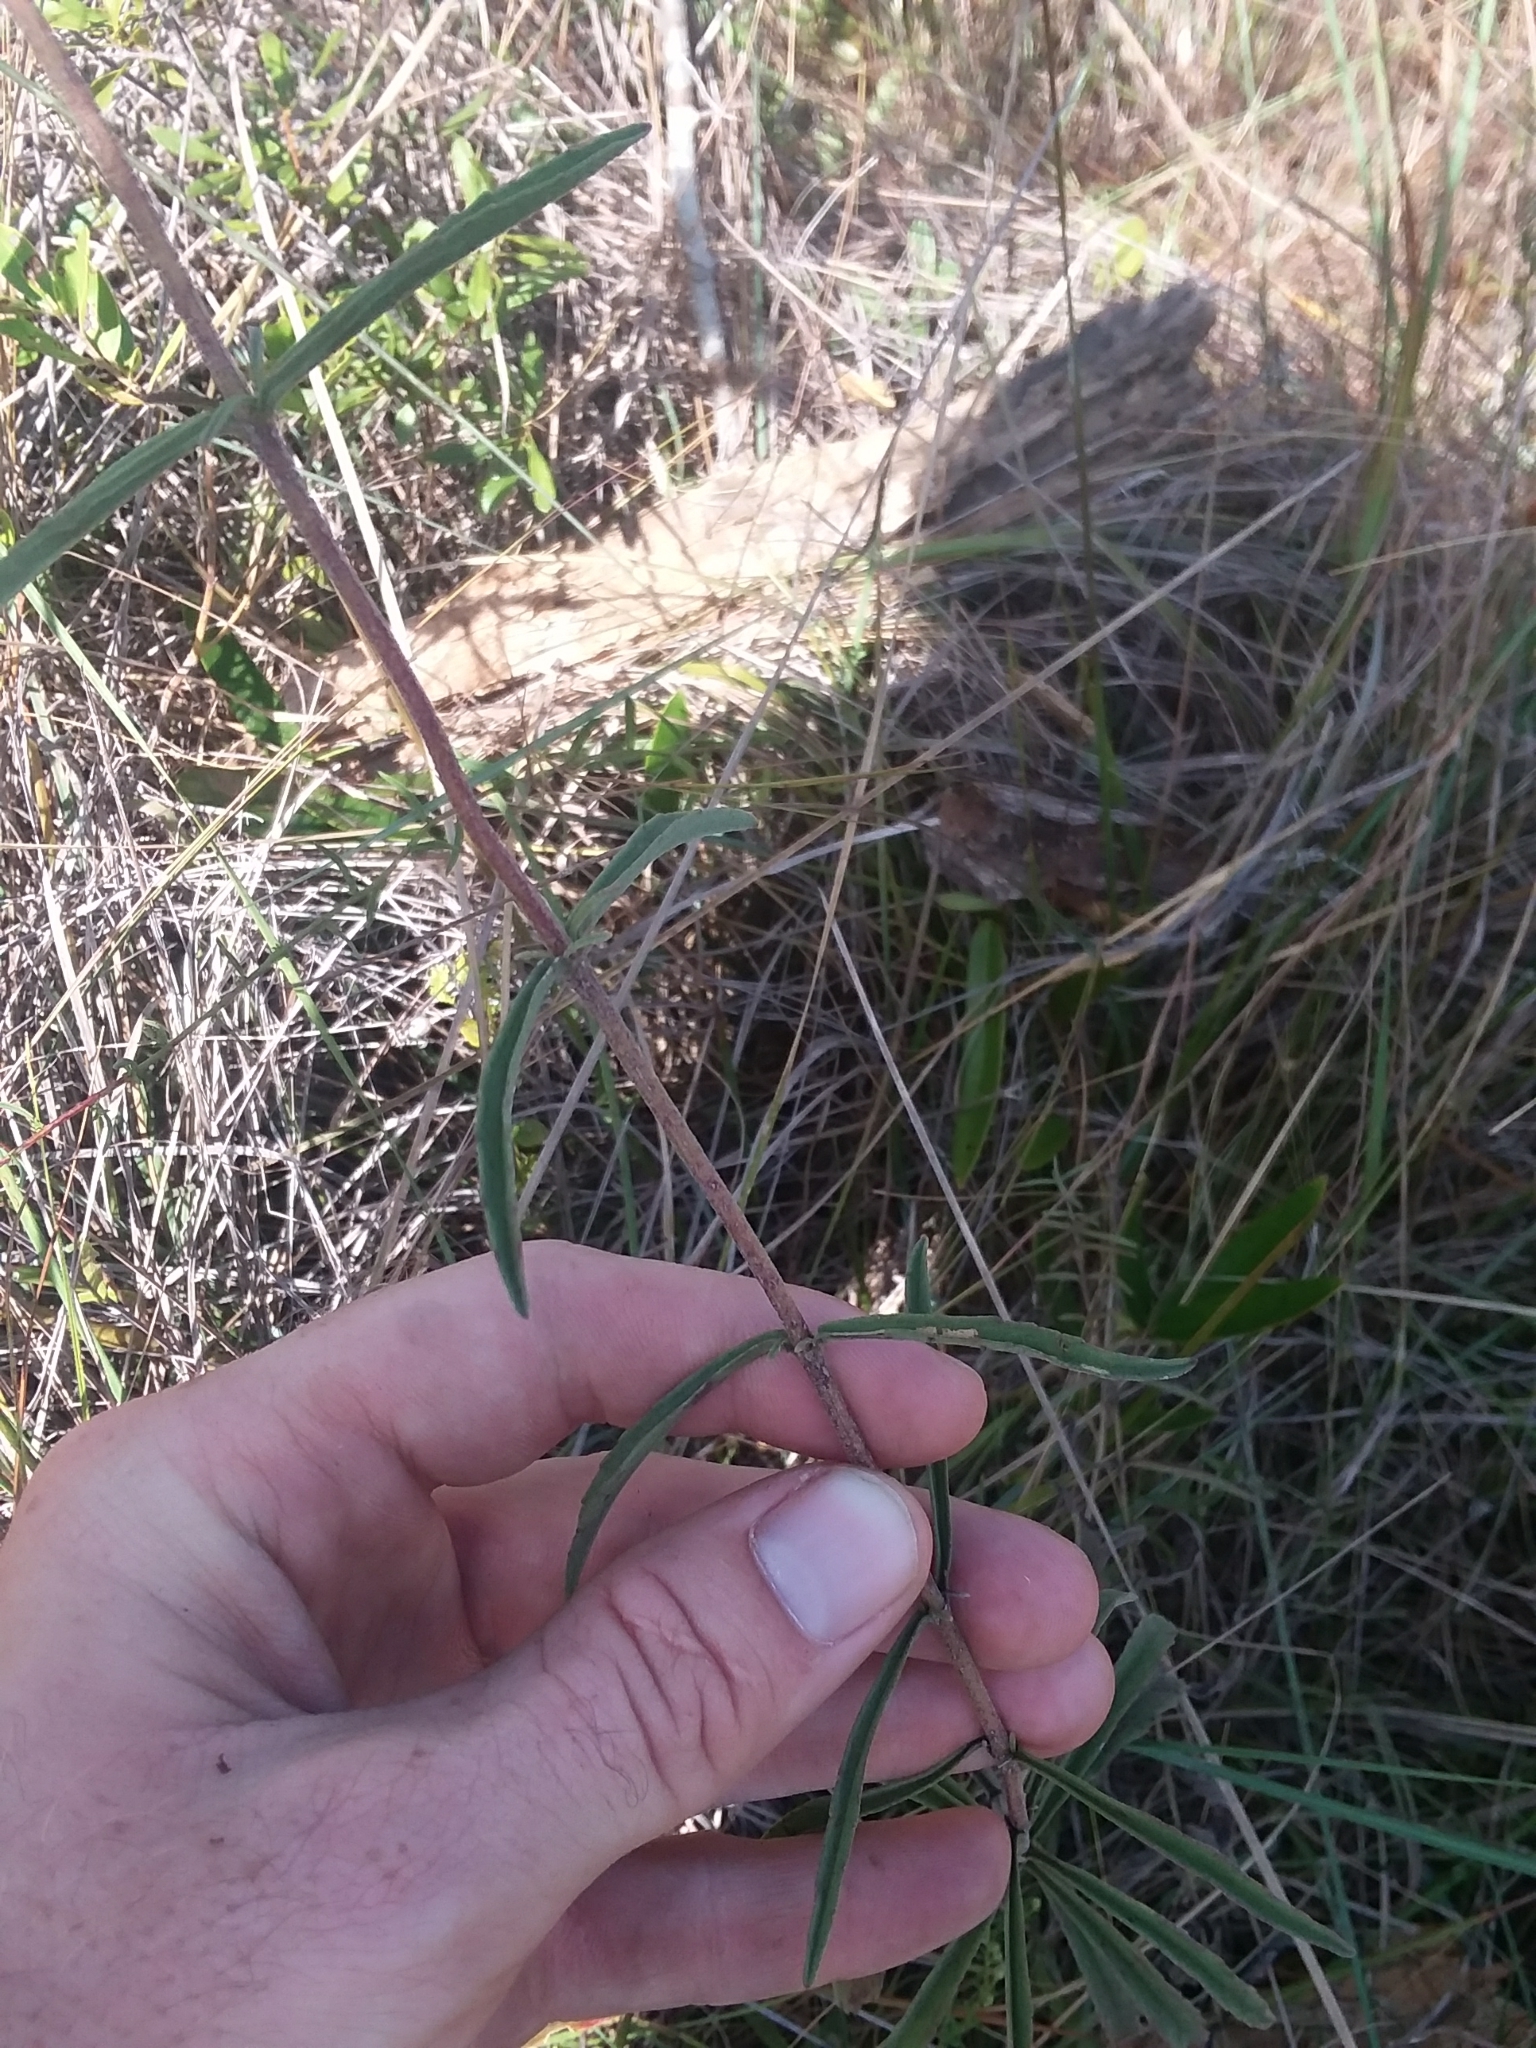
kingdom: Plantae
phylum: Tracheophyta
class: Magnoliopsida
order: Asterales
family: Asteraceae
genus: Eupatorium
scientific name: Eupatorium leucolepis
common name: Justiceweed
